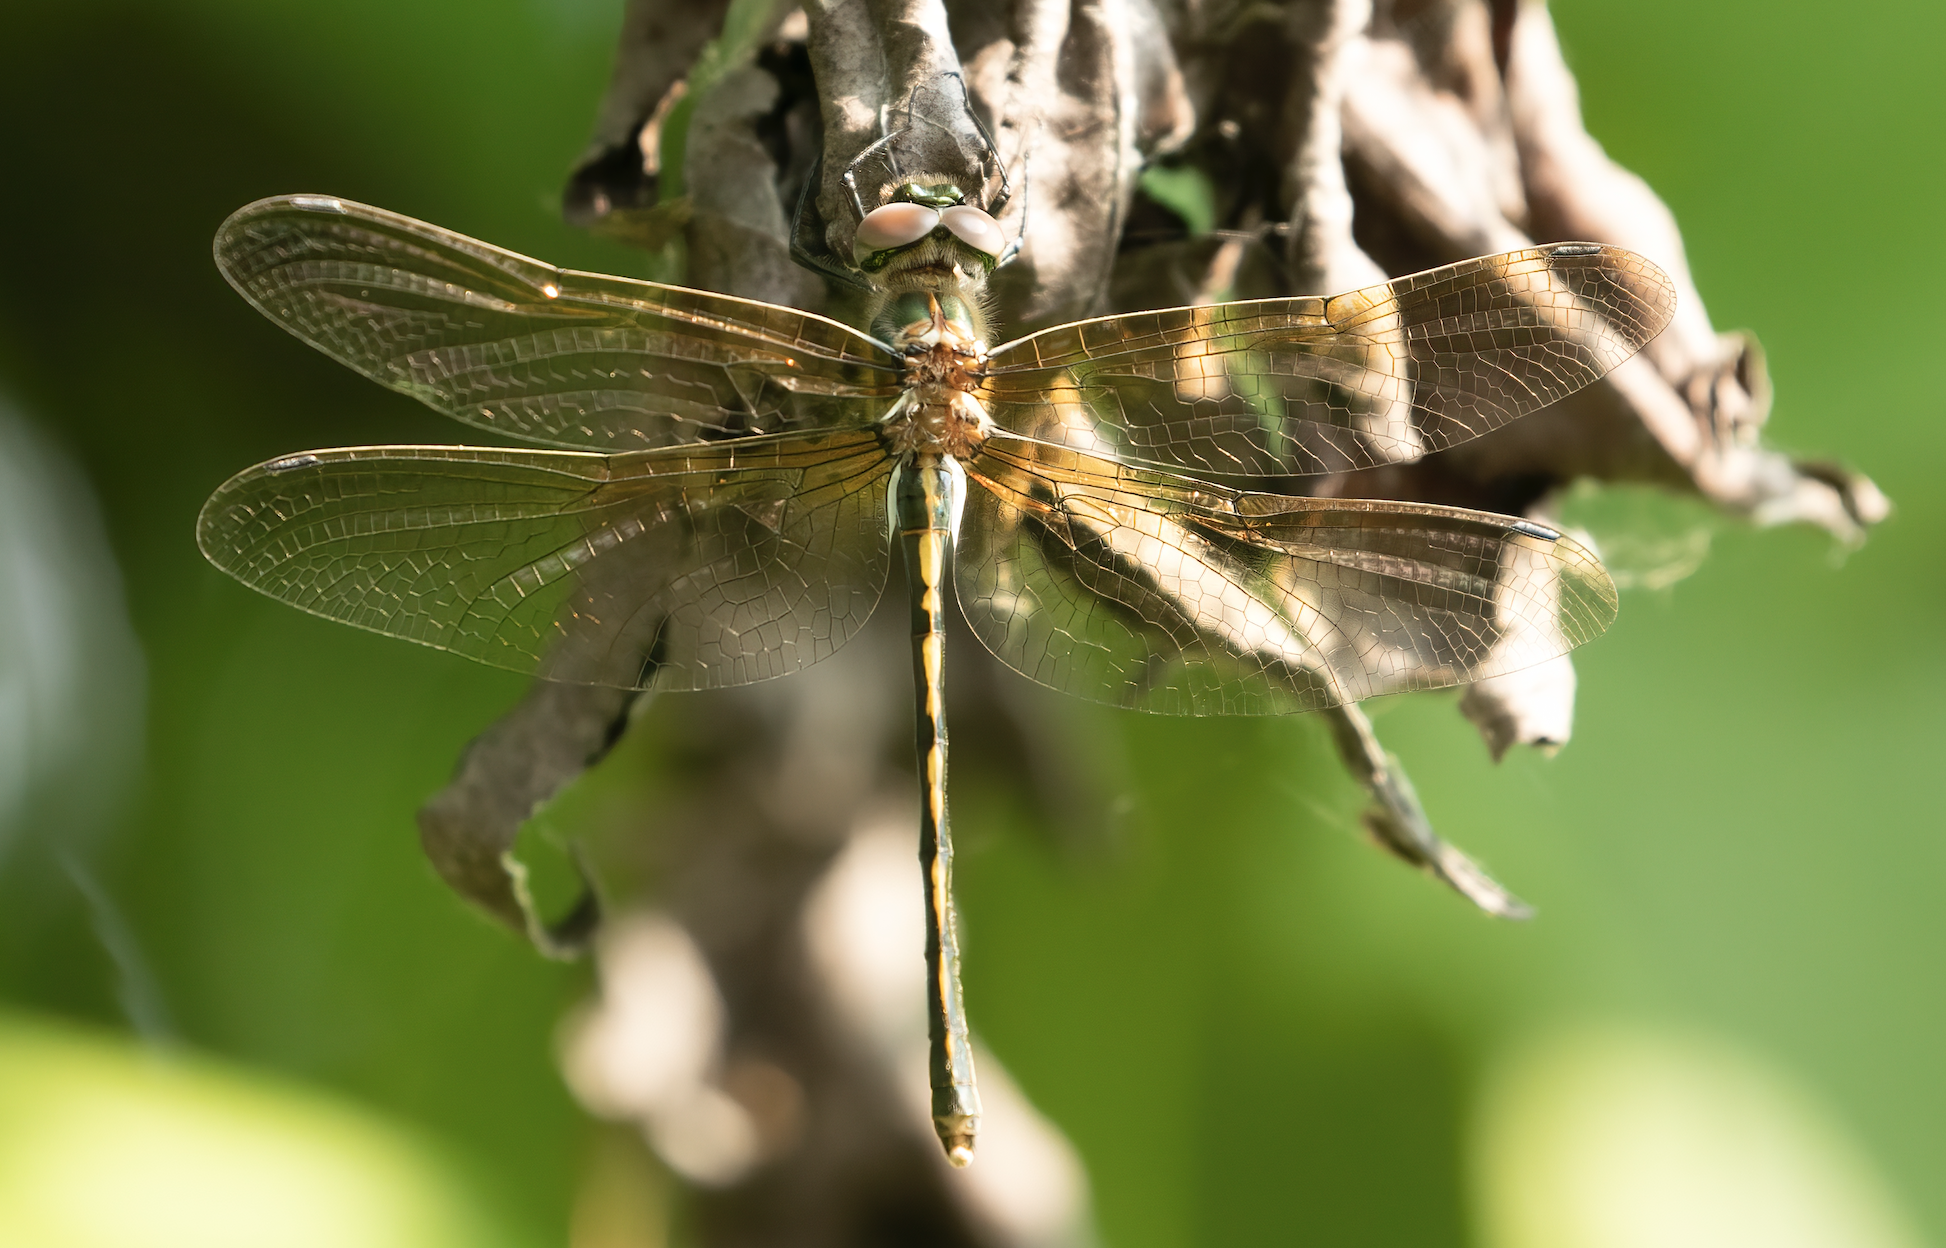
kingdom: Animalia
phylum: Arthropoda
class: Insecta
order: Odonata
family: Corduliidae
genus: Oxygastra
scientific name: Oxygastra curtisii
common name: Orange-spotted emerald
